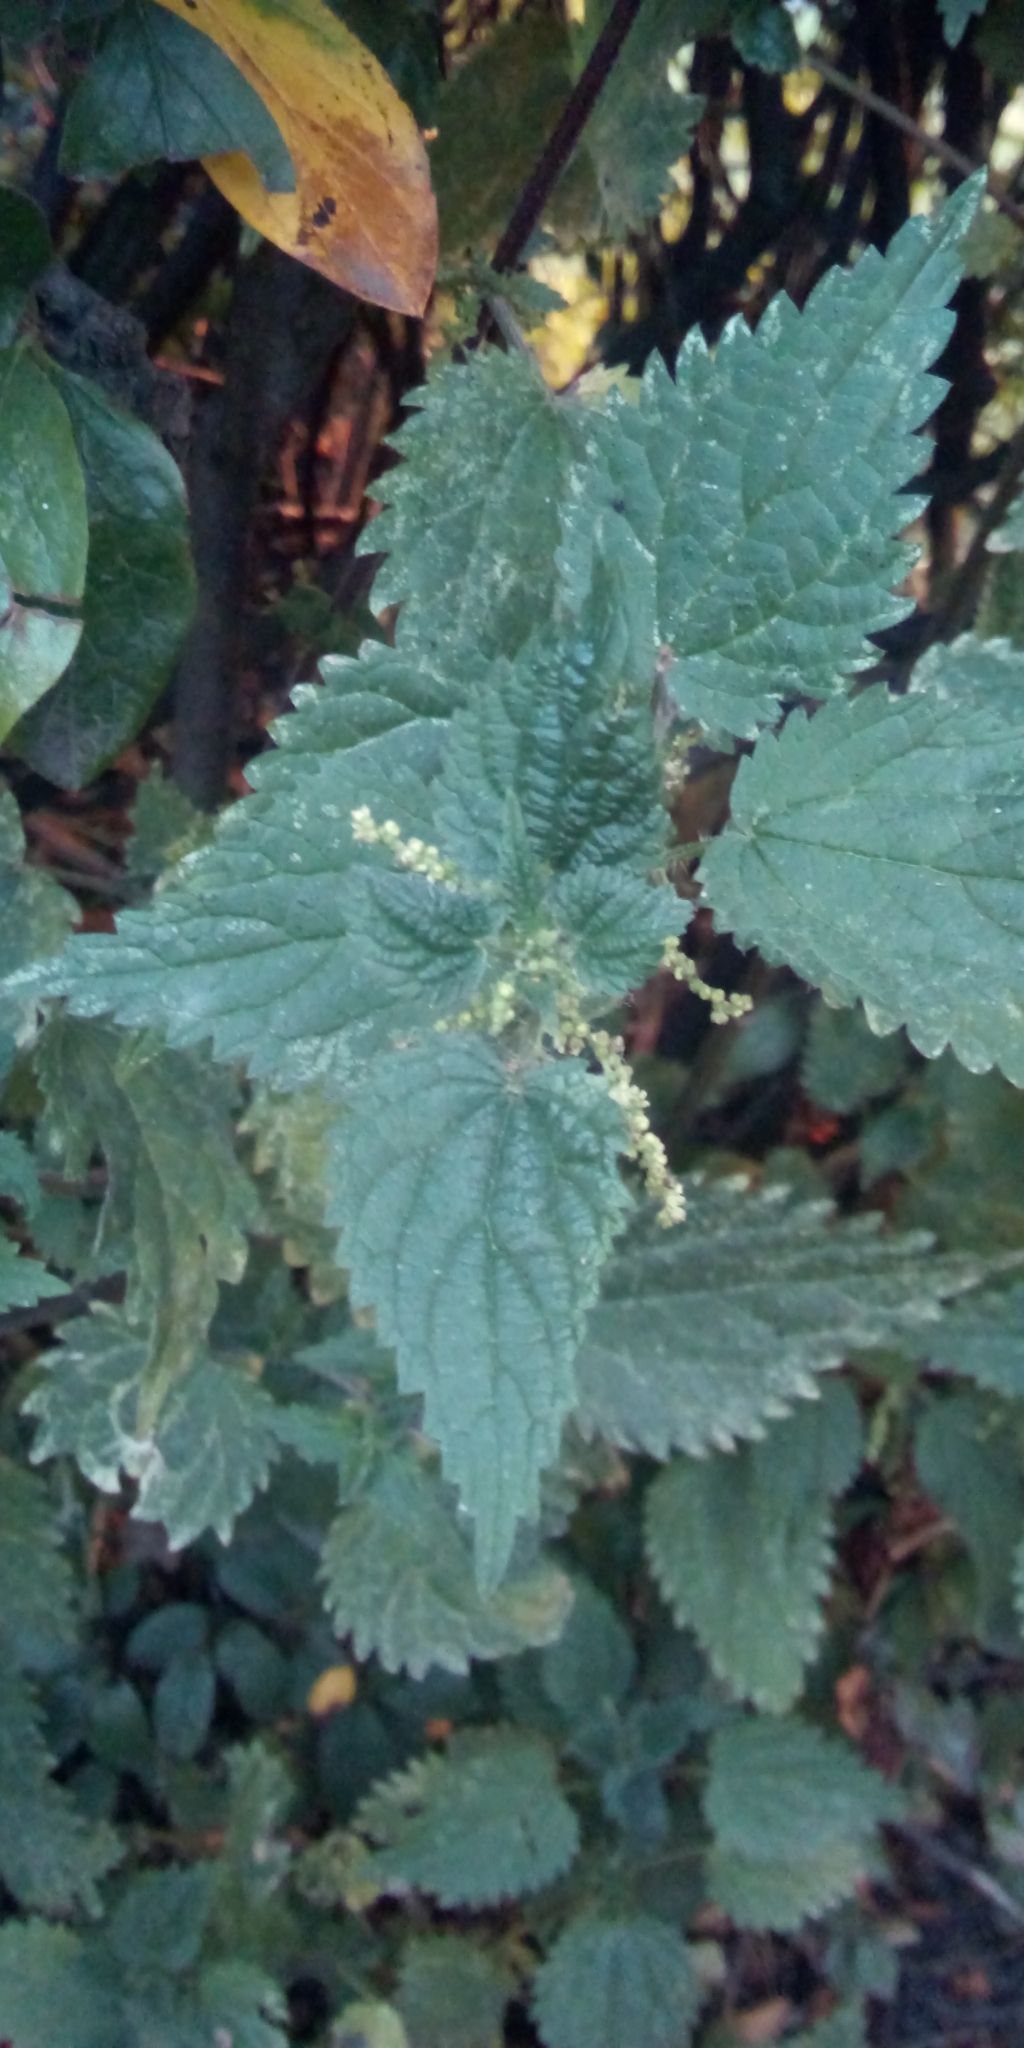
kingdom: Plantae
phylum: Tracheophyta
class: Magnoliopsida
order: Rosales
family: Urticaceae
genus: Urtica
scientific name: Urtica dioica
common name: Common nettle
